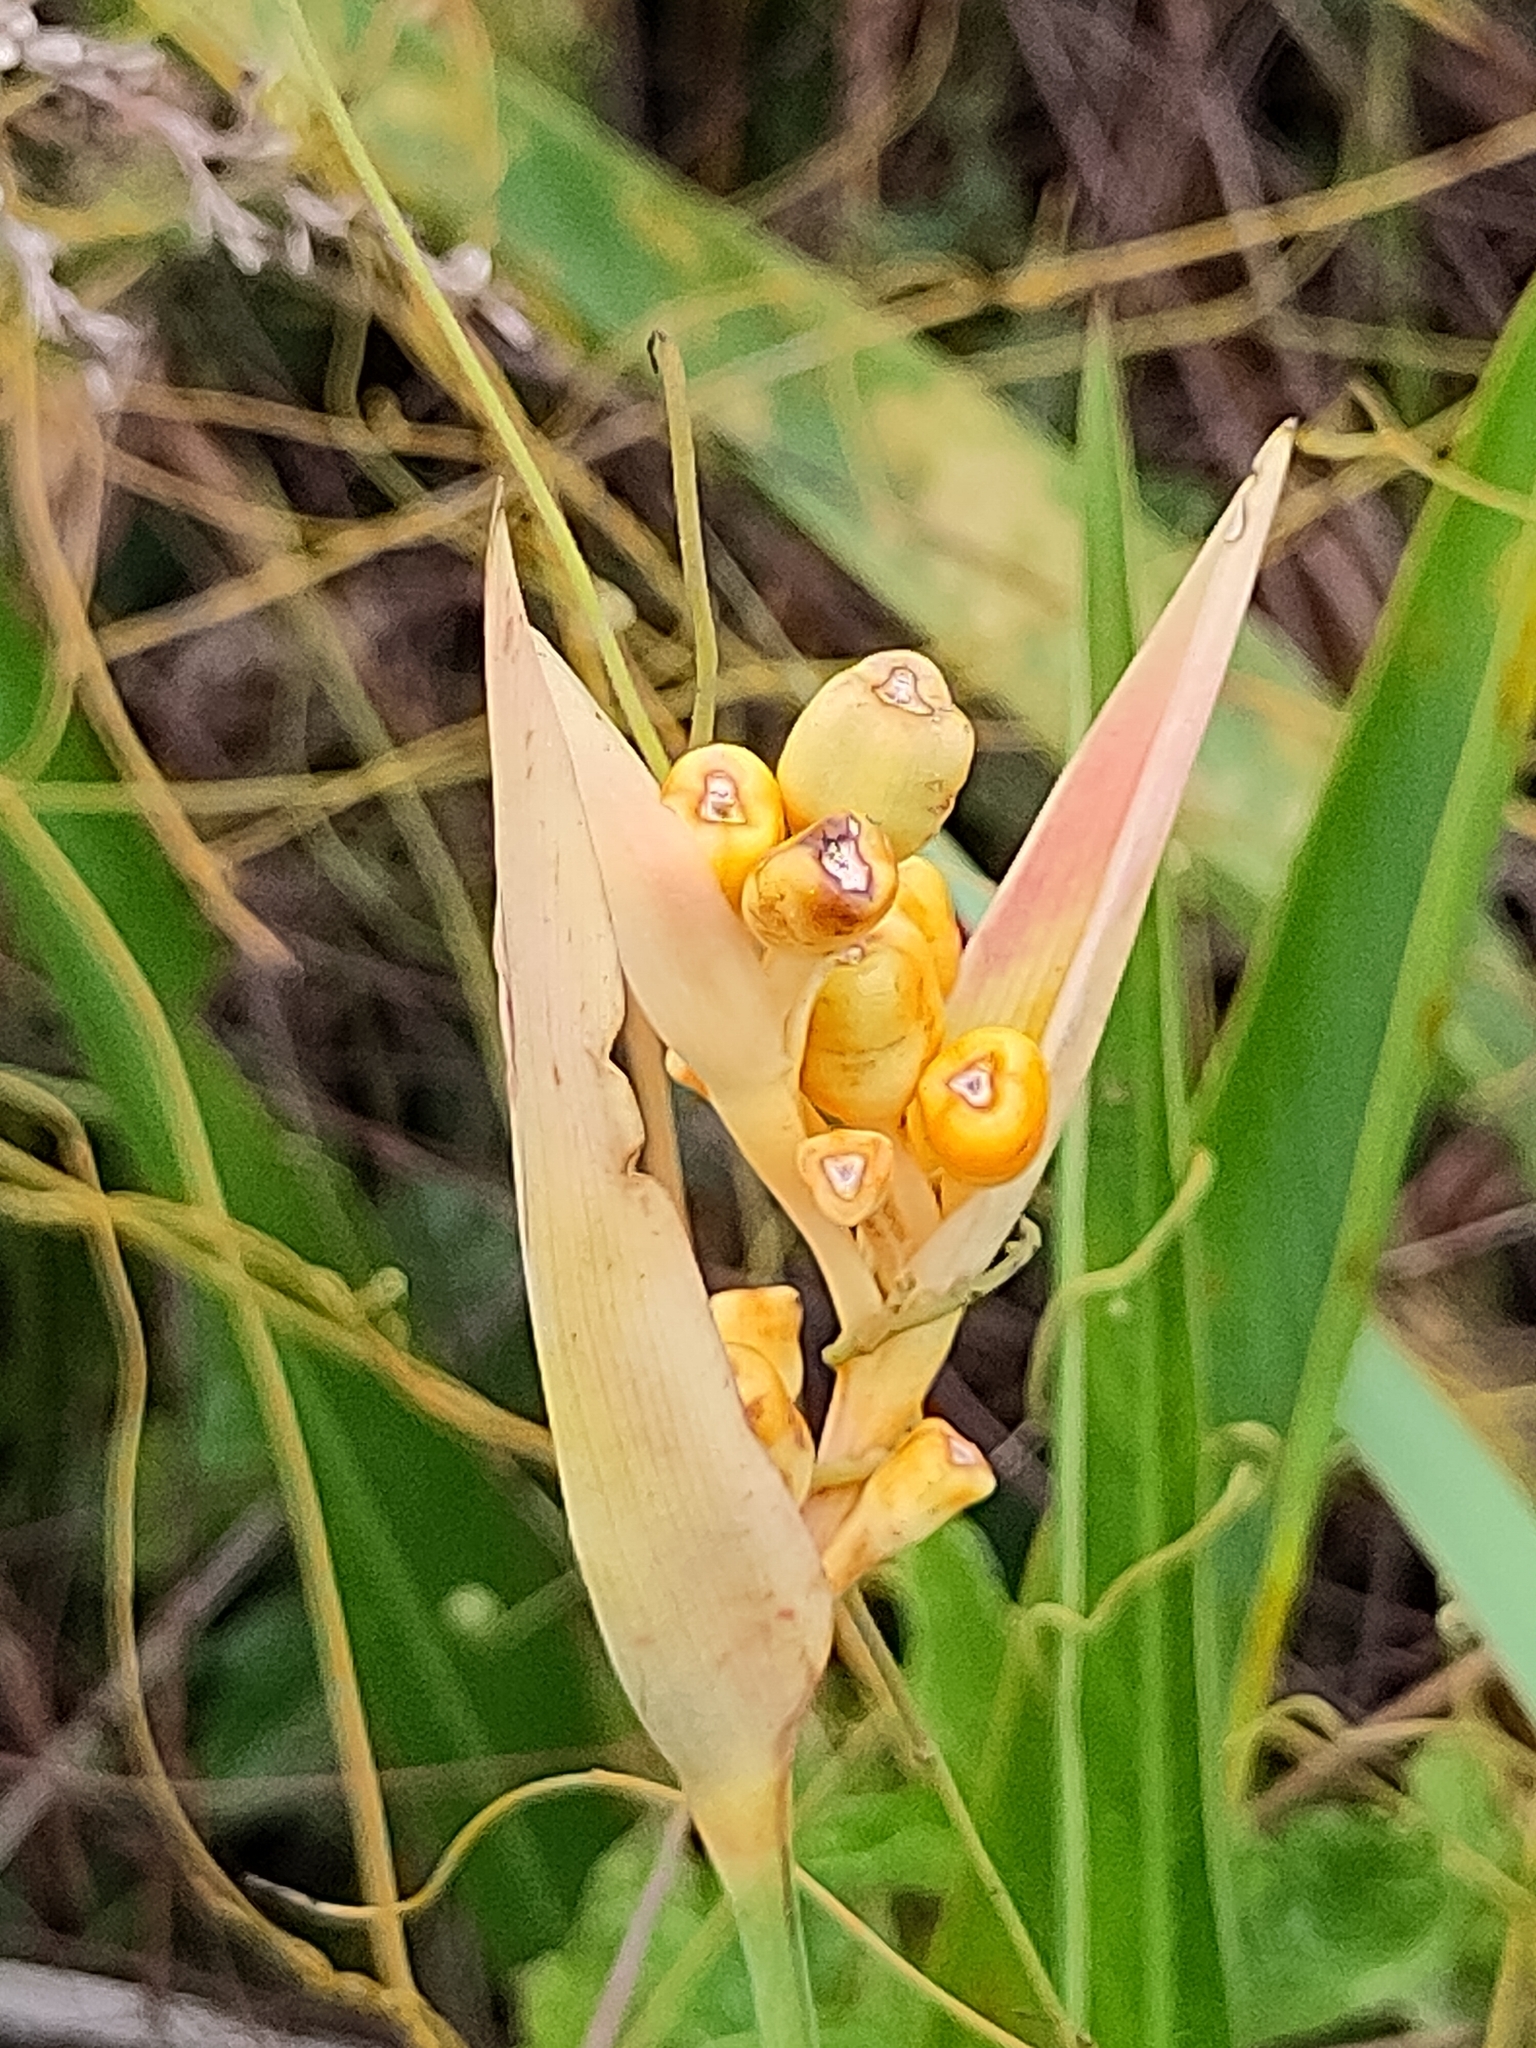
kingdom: Plantae
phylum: Tracheophyta
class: Liliopsida
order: Zingiberales
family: Heliconiaceae
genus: Heliconia
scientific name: Heliconia psittacorum
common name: Parrot's-flower
